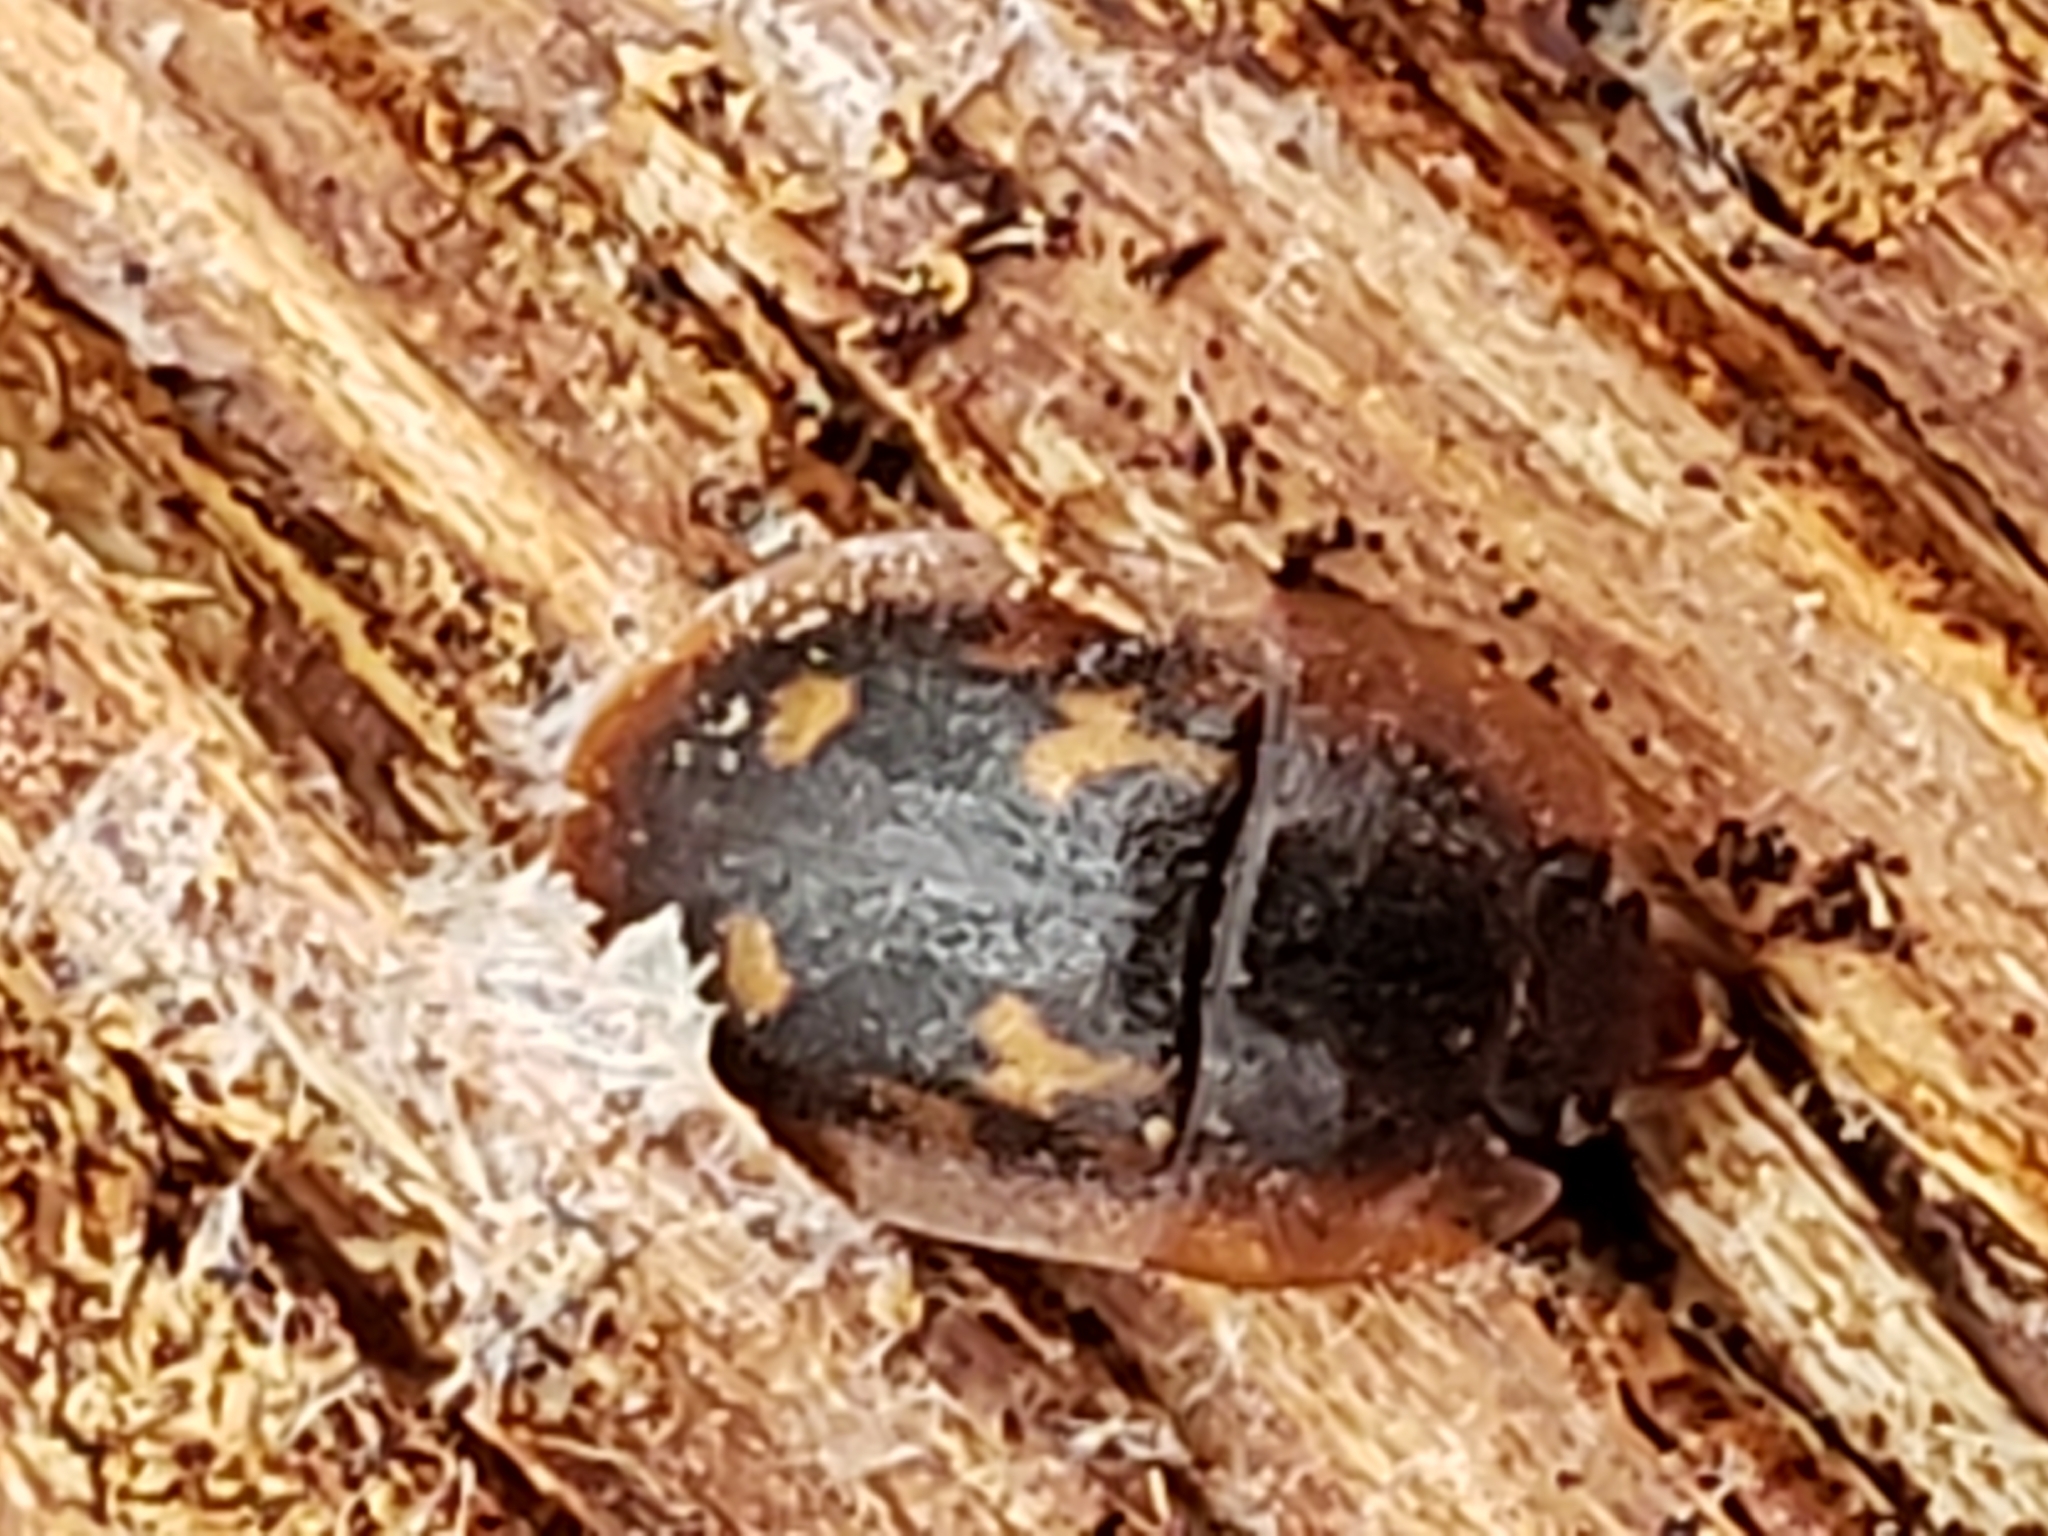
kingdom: Animalia
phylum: Arthropoda
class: Insecta
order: Coleoptera
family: Nitidulidae
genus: Prometopia
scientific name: Prometopia sexmaculata
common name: Six-spotted sap-feeding beetle
